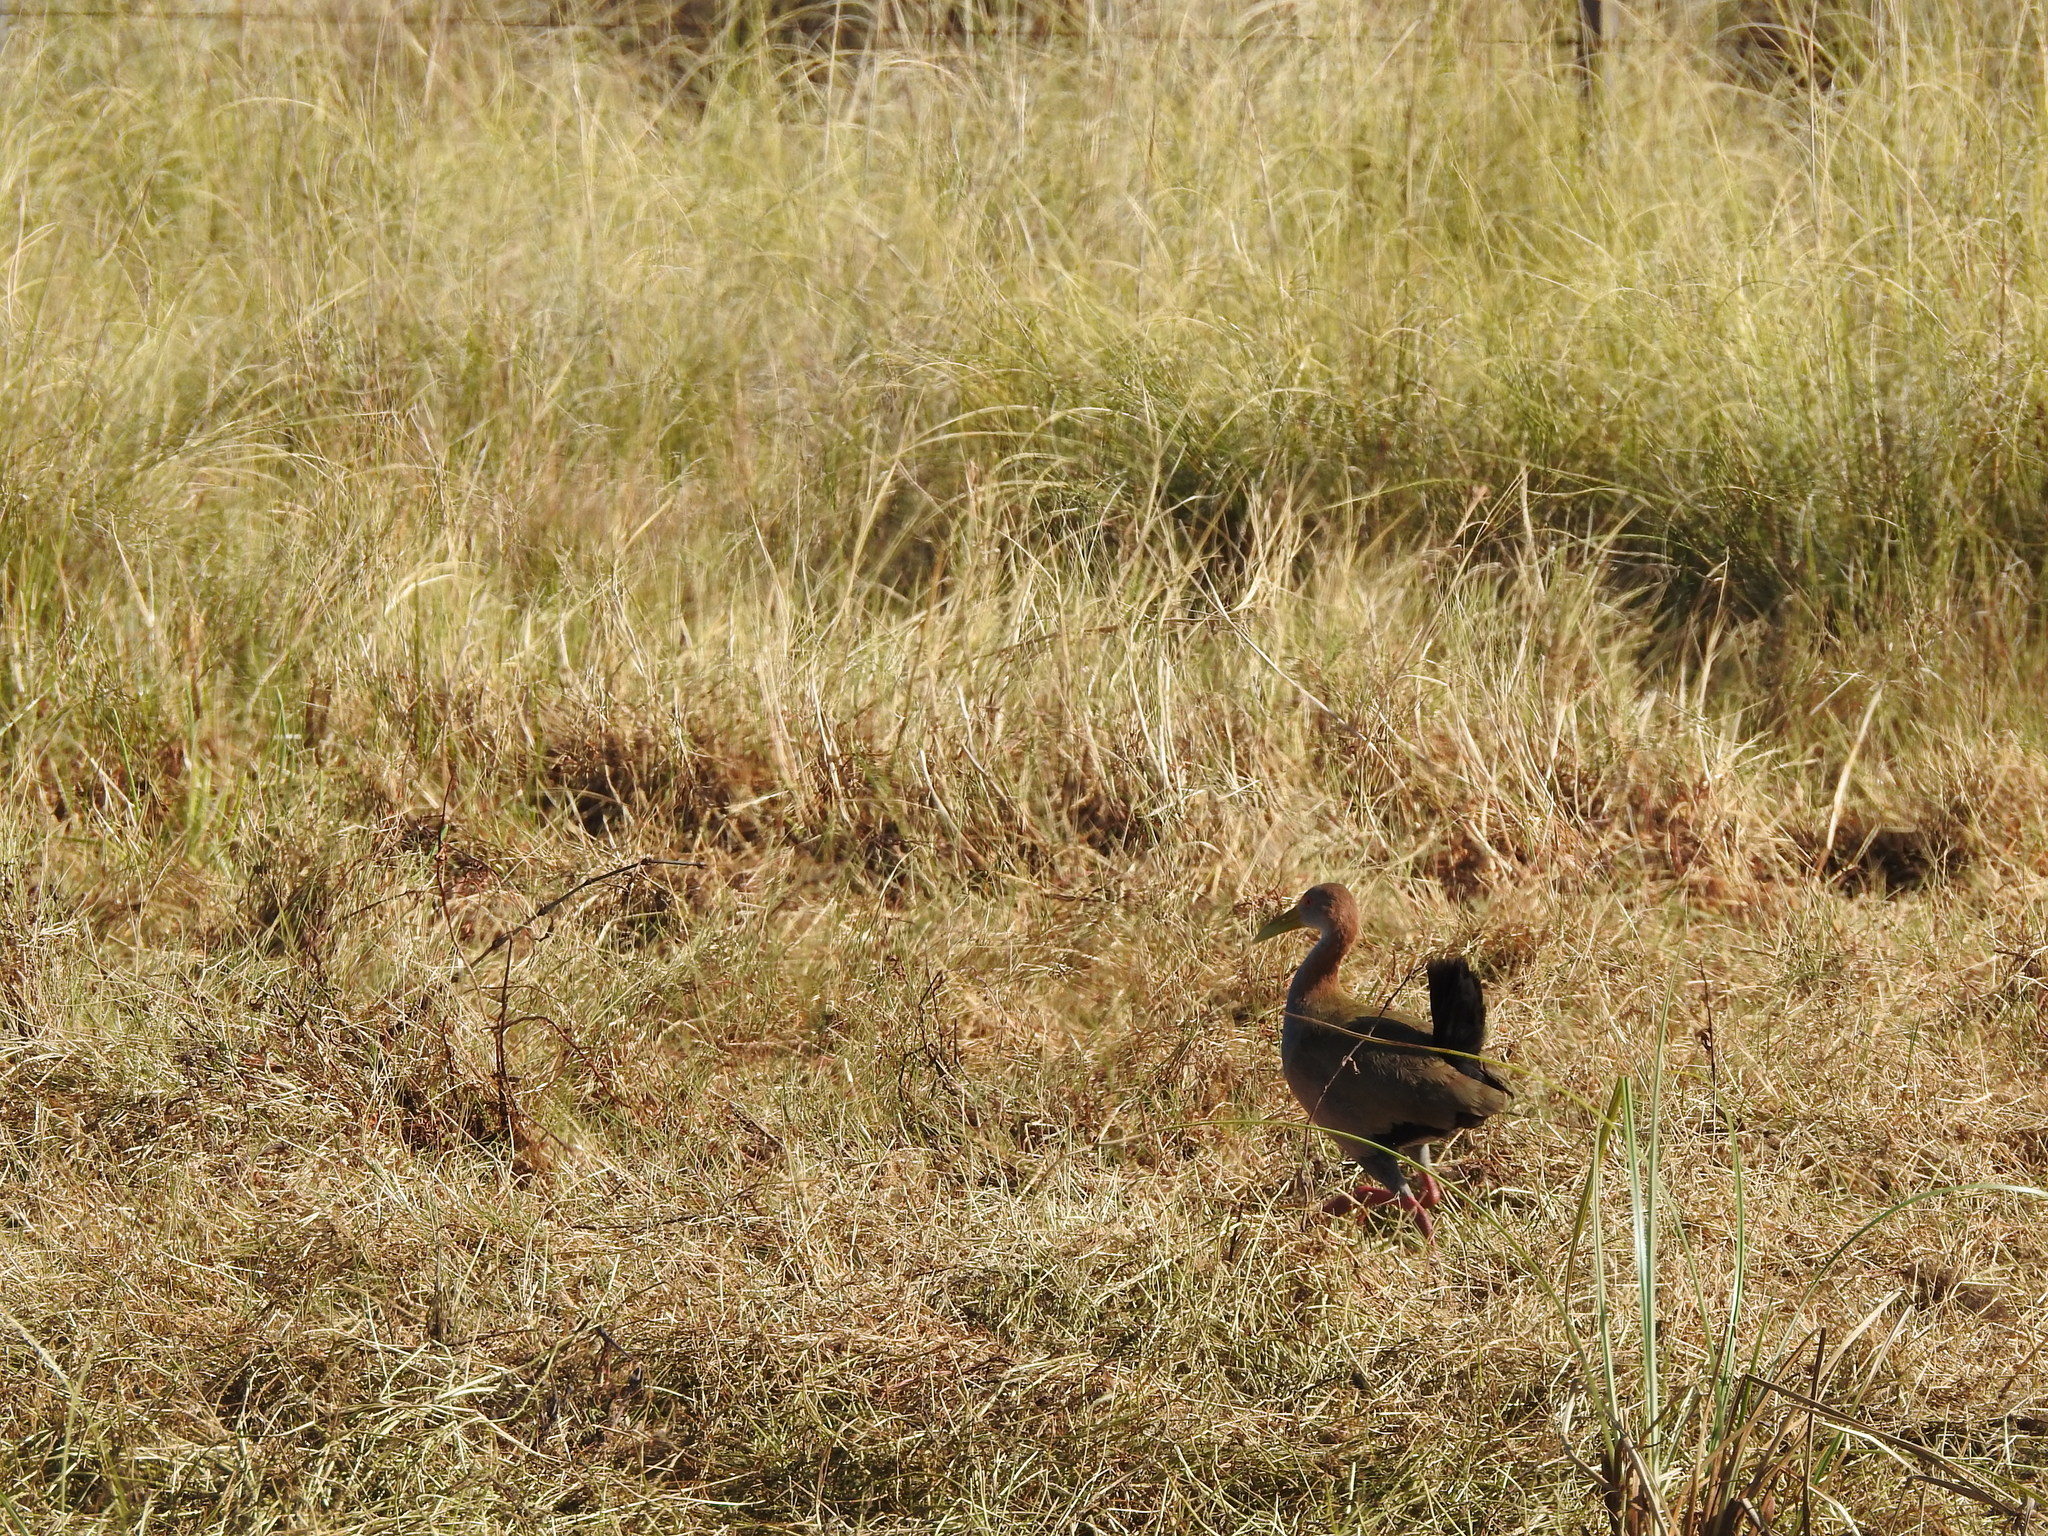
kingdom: Animalia
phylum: Chordata
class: Aves
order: Gruiformes
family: Rallidae
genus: Aramides
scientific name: Aramides ypecaha
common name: Giant wood rail
